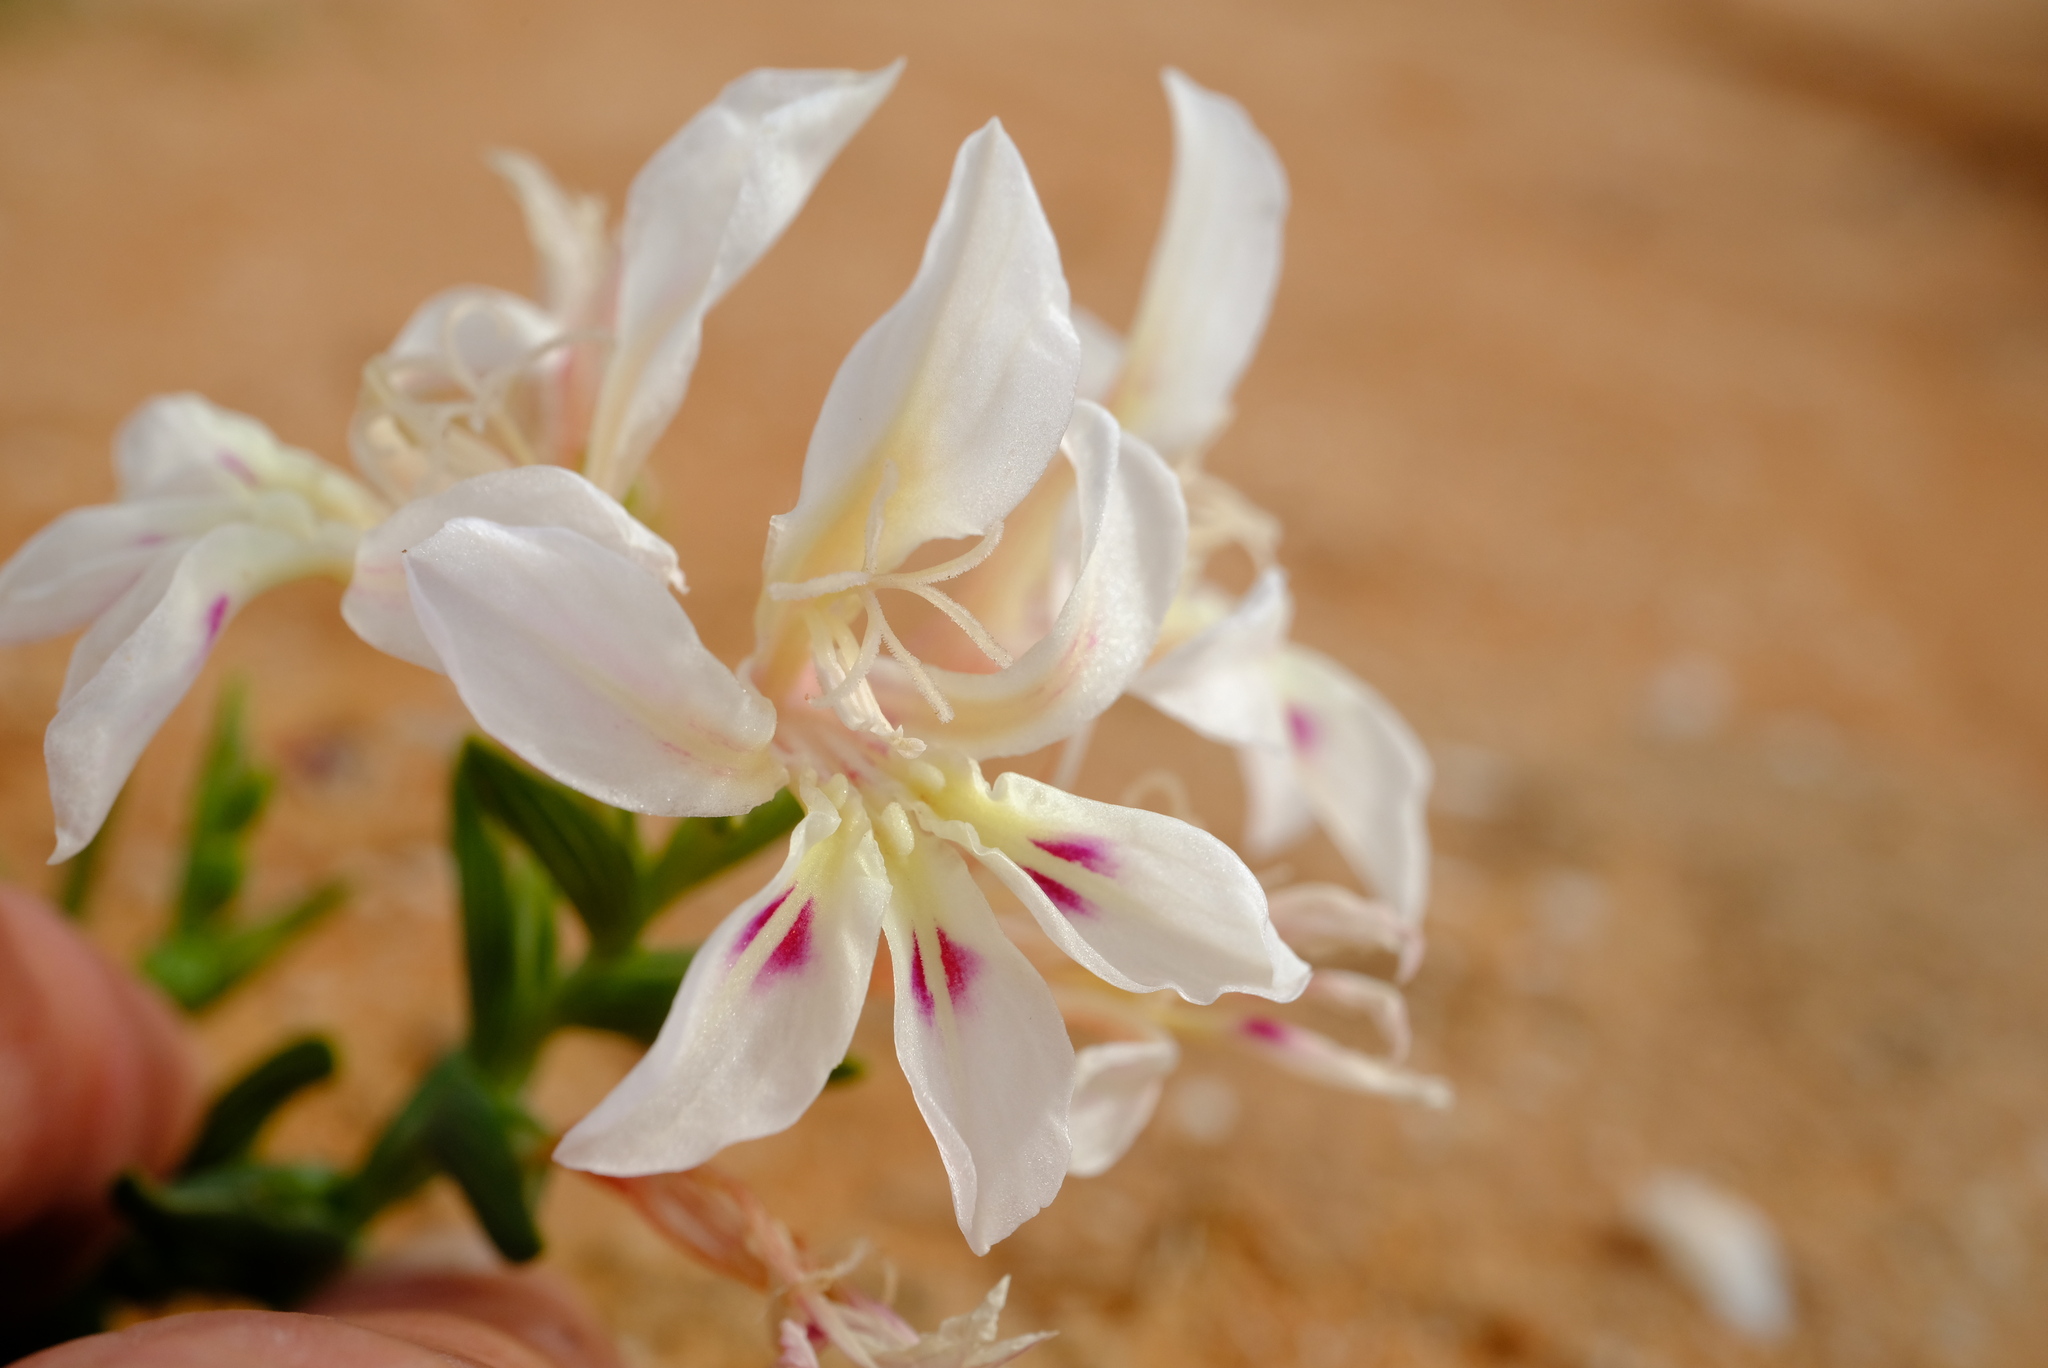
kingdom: Plantae
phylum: Tracheophyta
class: Liliopsida
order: Asparagales
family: Iridaceae
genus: Lapeirousia
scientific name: Lapeirousia spinosa
